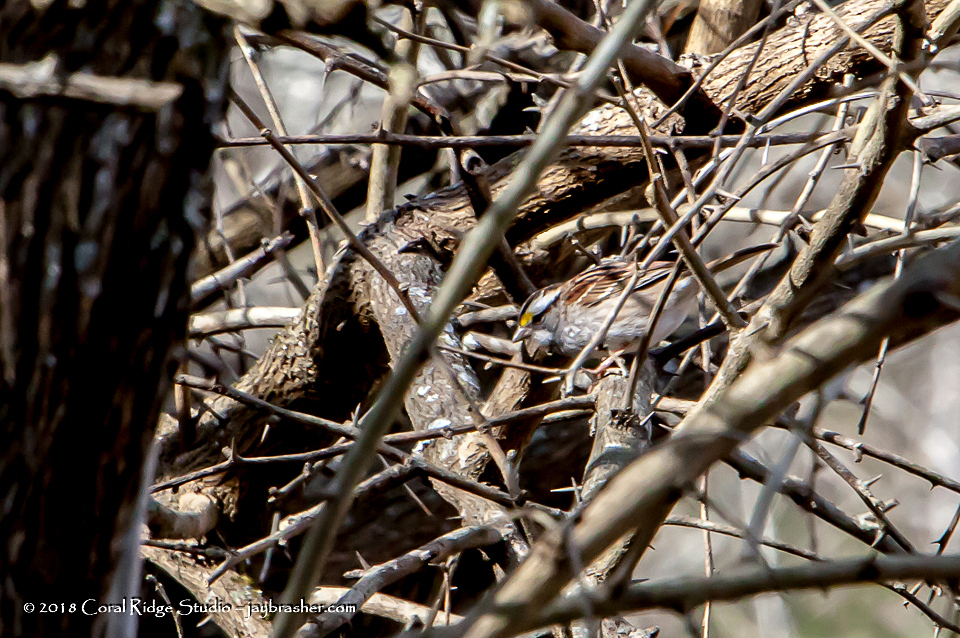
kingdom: Animalia
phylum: Chordata
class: Aves
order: Passeriformes
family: Passerellidae
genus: Zonotrichia
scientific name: Zonotrichia albicollis
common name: White-throated sparrow
